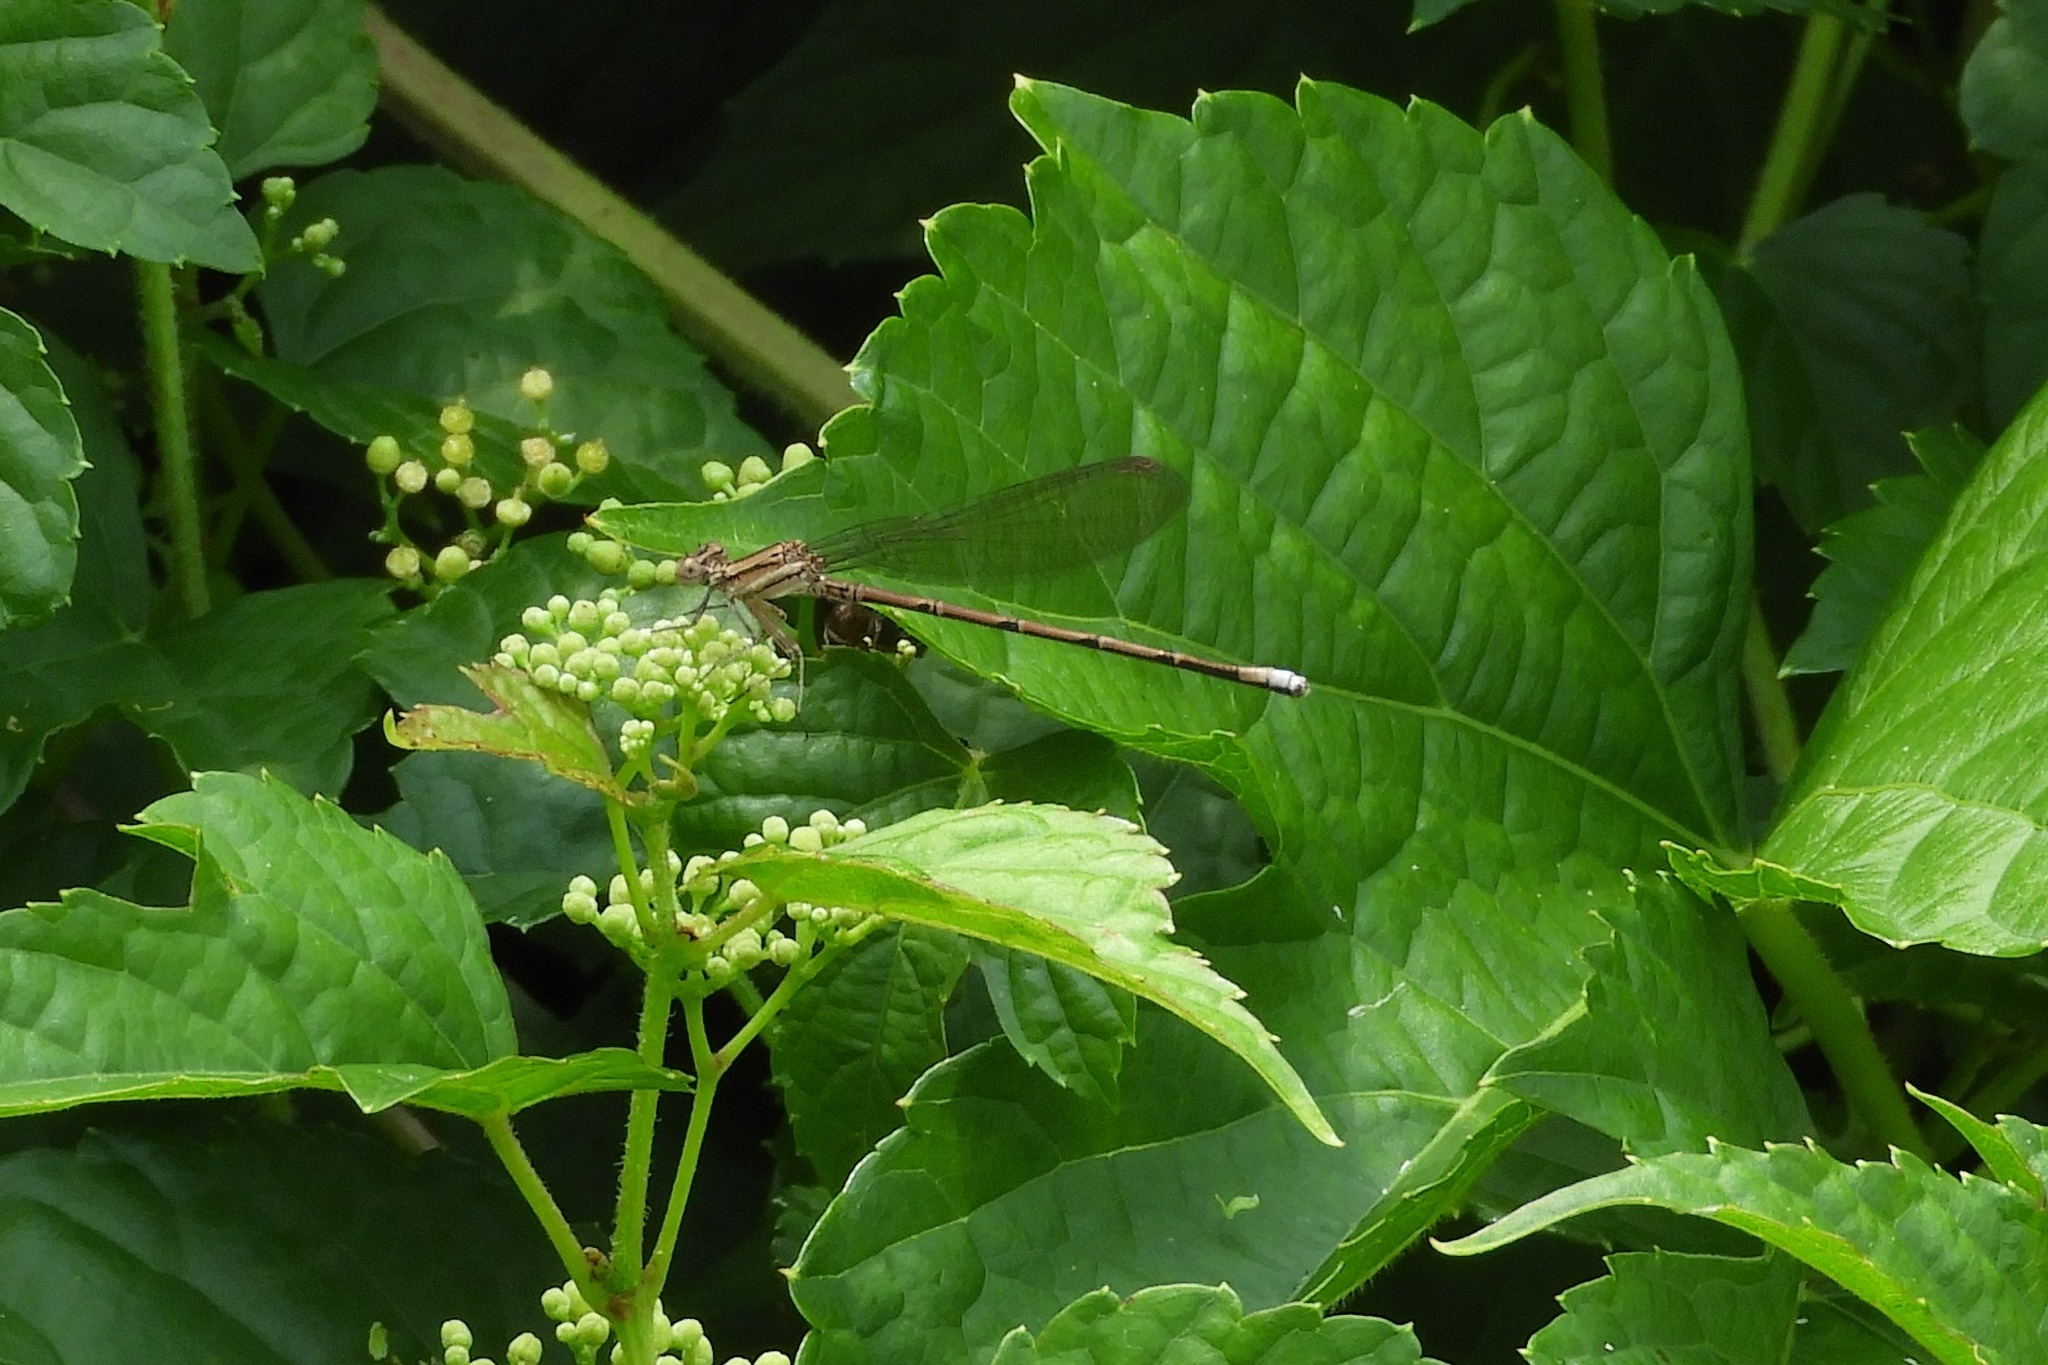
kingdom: Animalia
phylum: Arthropoda
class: Insecta
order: Odonata
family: Coenagrionidae
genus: Argia
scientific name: Argia fumipennis
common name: Variable dancer
